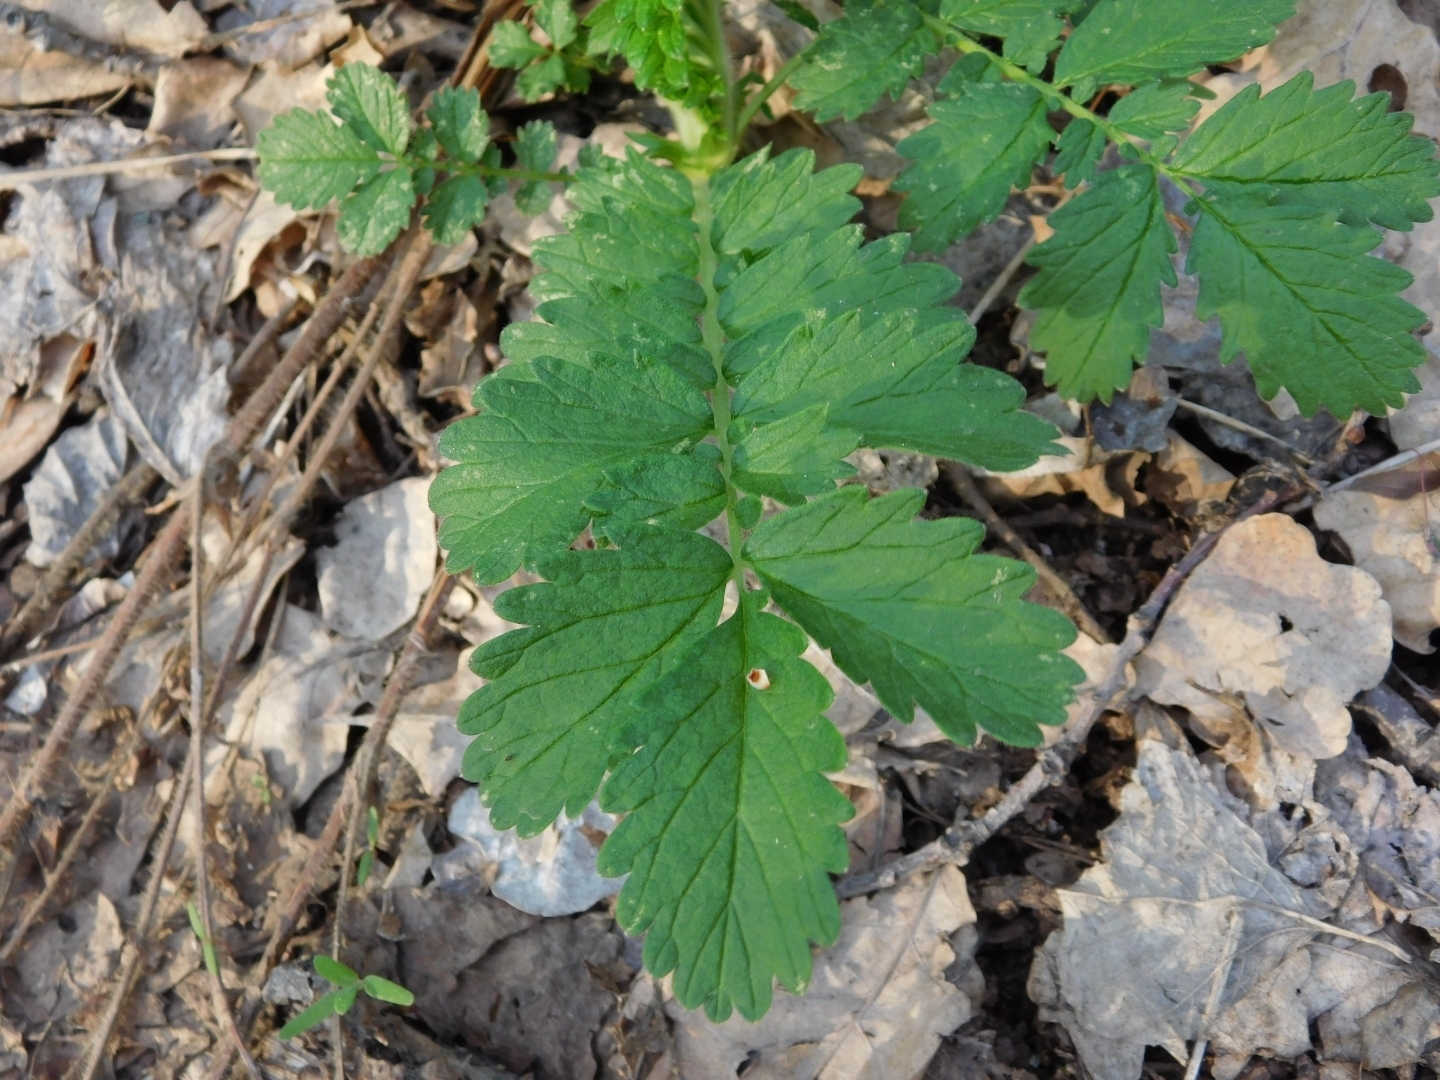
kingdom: Plantae
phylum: Tracheophyta
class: Magnoliopsida
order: Rosales
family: Rosaceae
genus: Agrimonia
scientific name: Agrimonia eupatoria
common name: Agrimony
